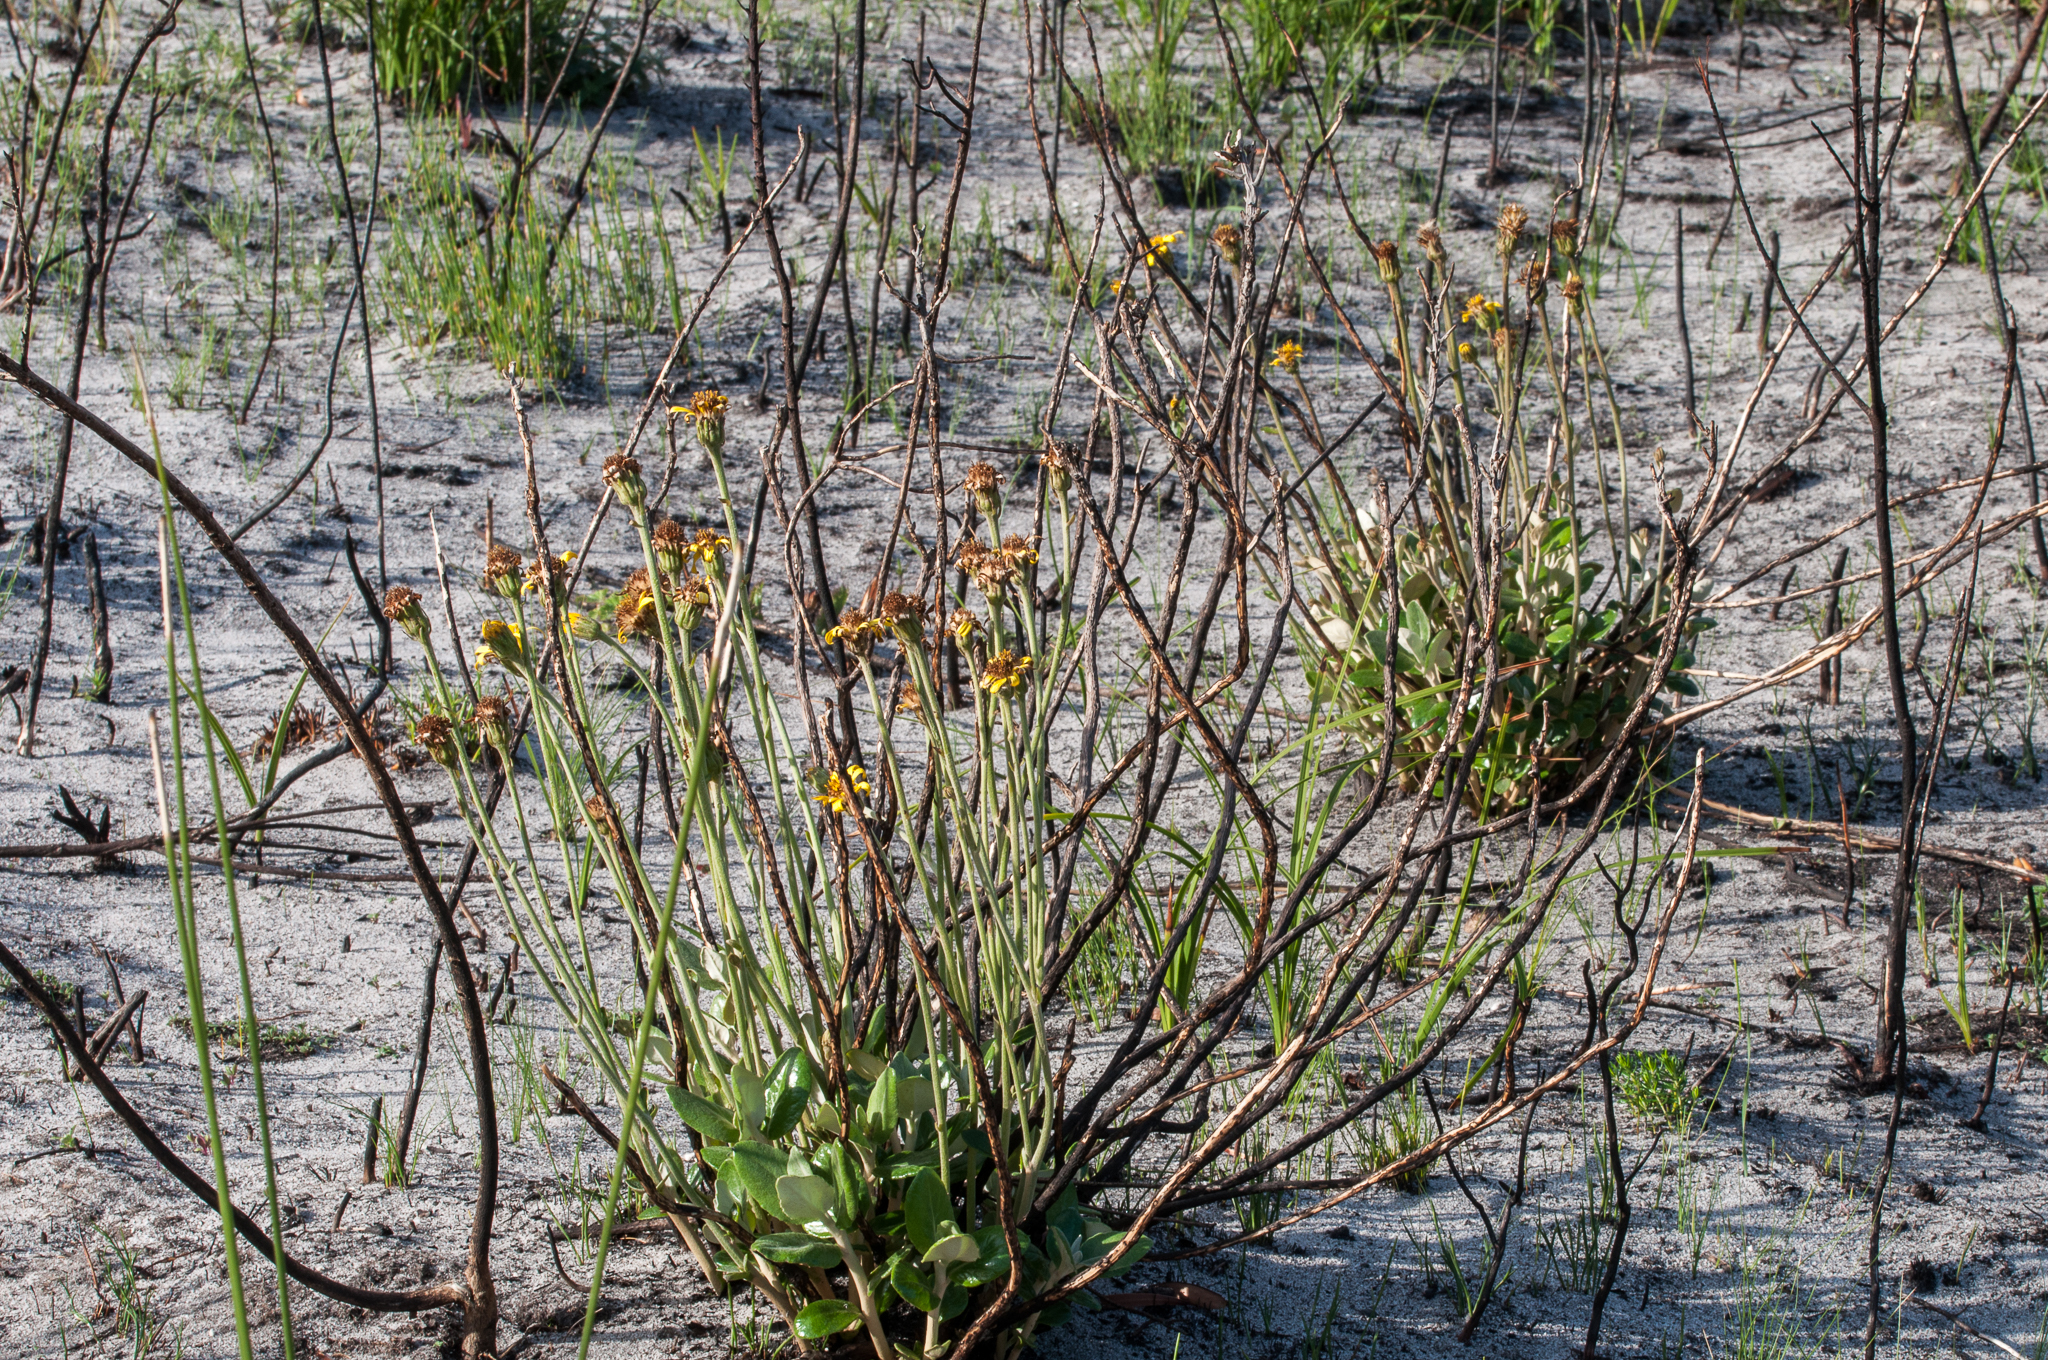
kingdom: Plantae
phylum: Tracheophyta
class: Magnoliopsida
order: Asterales
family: Asteraceae
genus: Capelio
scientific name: Capelio tabularis
